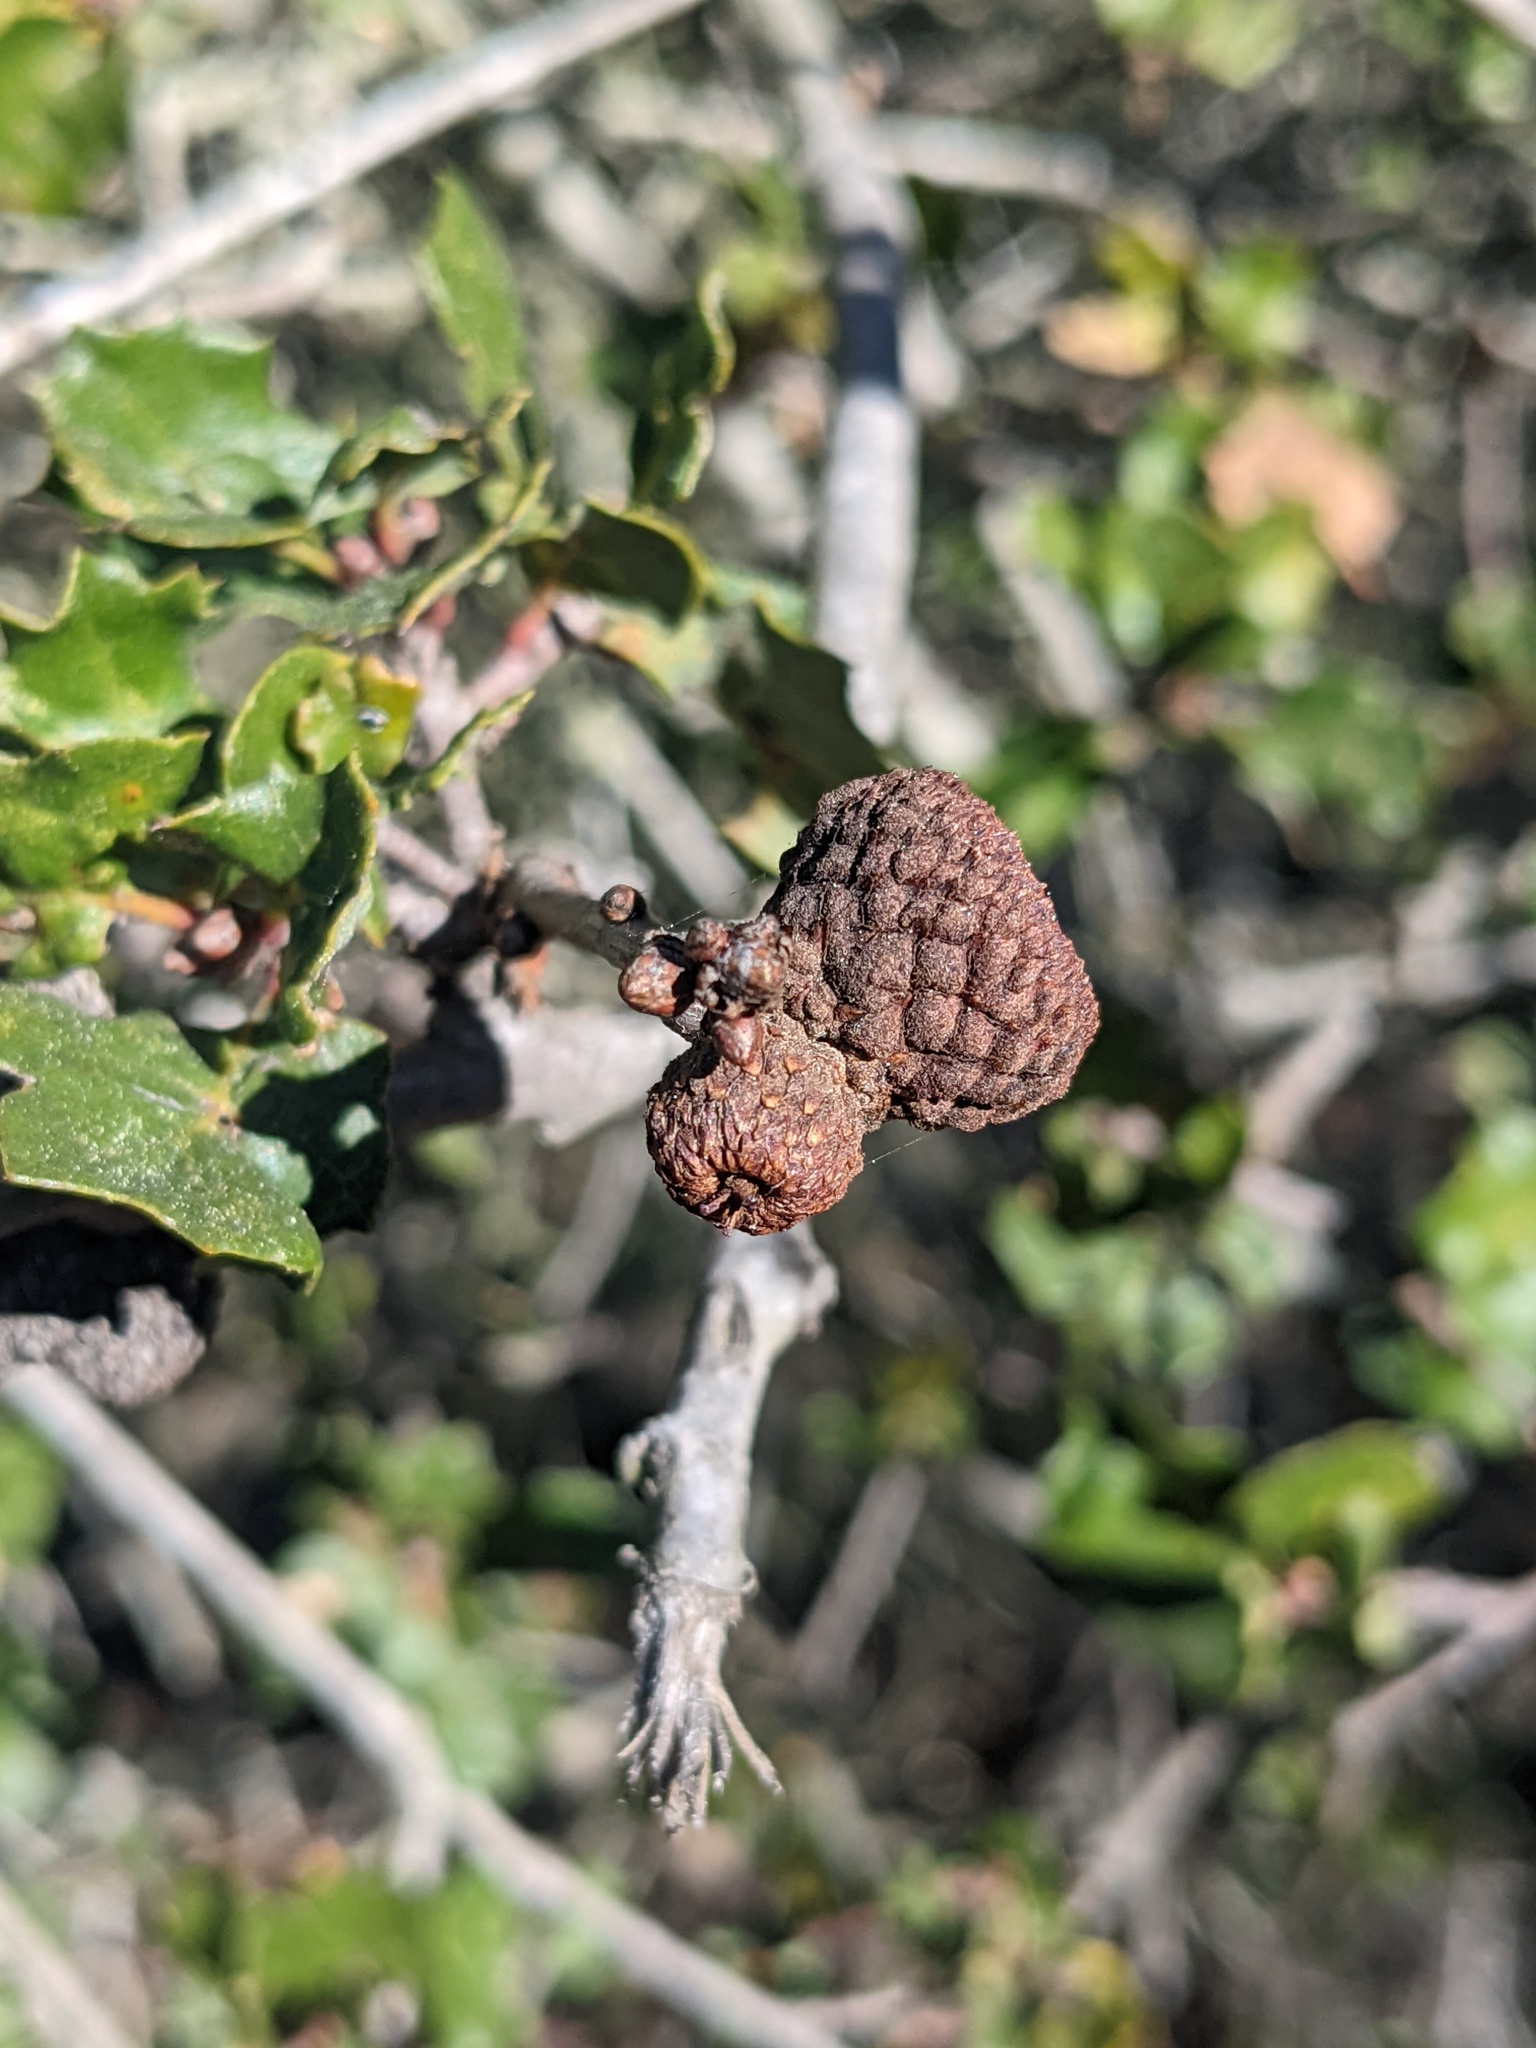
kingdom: Plantae
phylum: Tracheophyta
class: Magnoliopsida
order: Fagales
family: Fagaceae
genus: Quercus
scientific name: Quercus dumosa
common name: Coastal sage scrub oak
